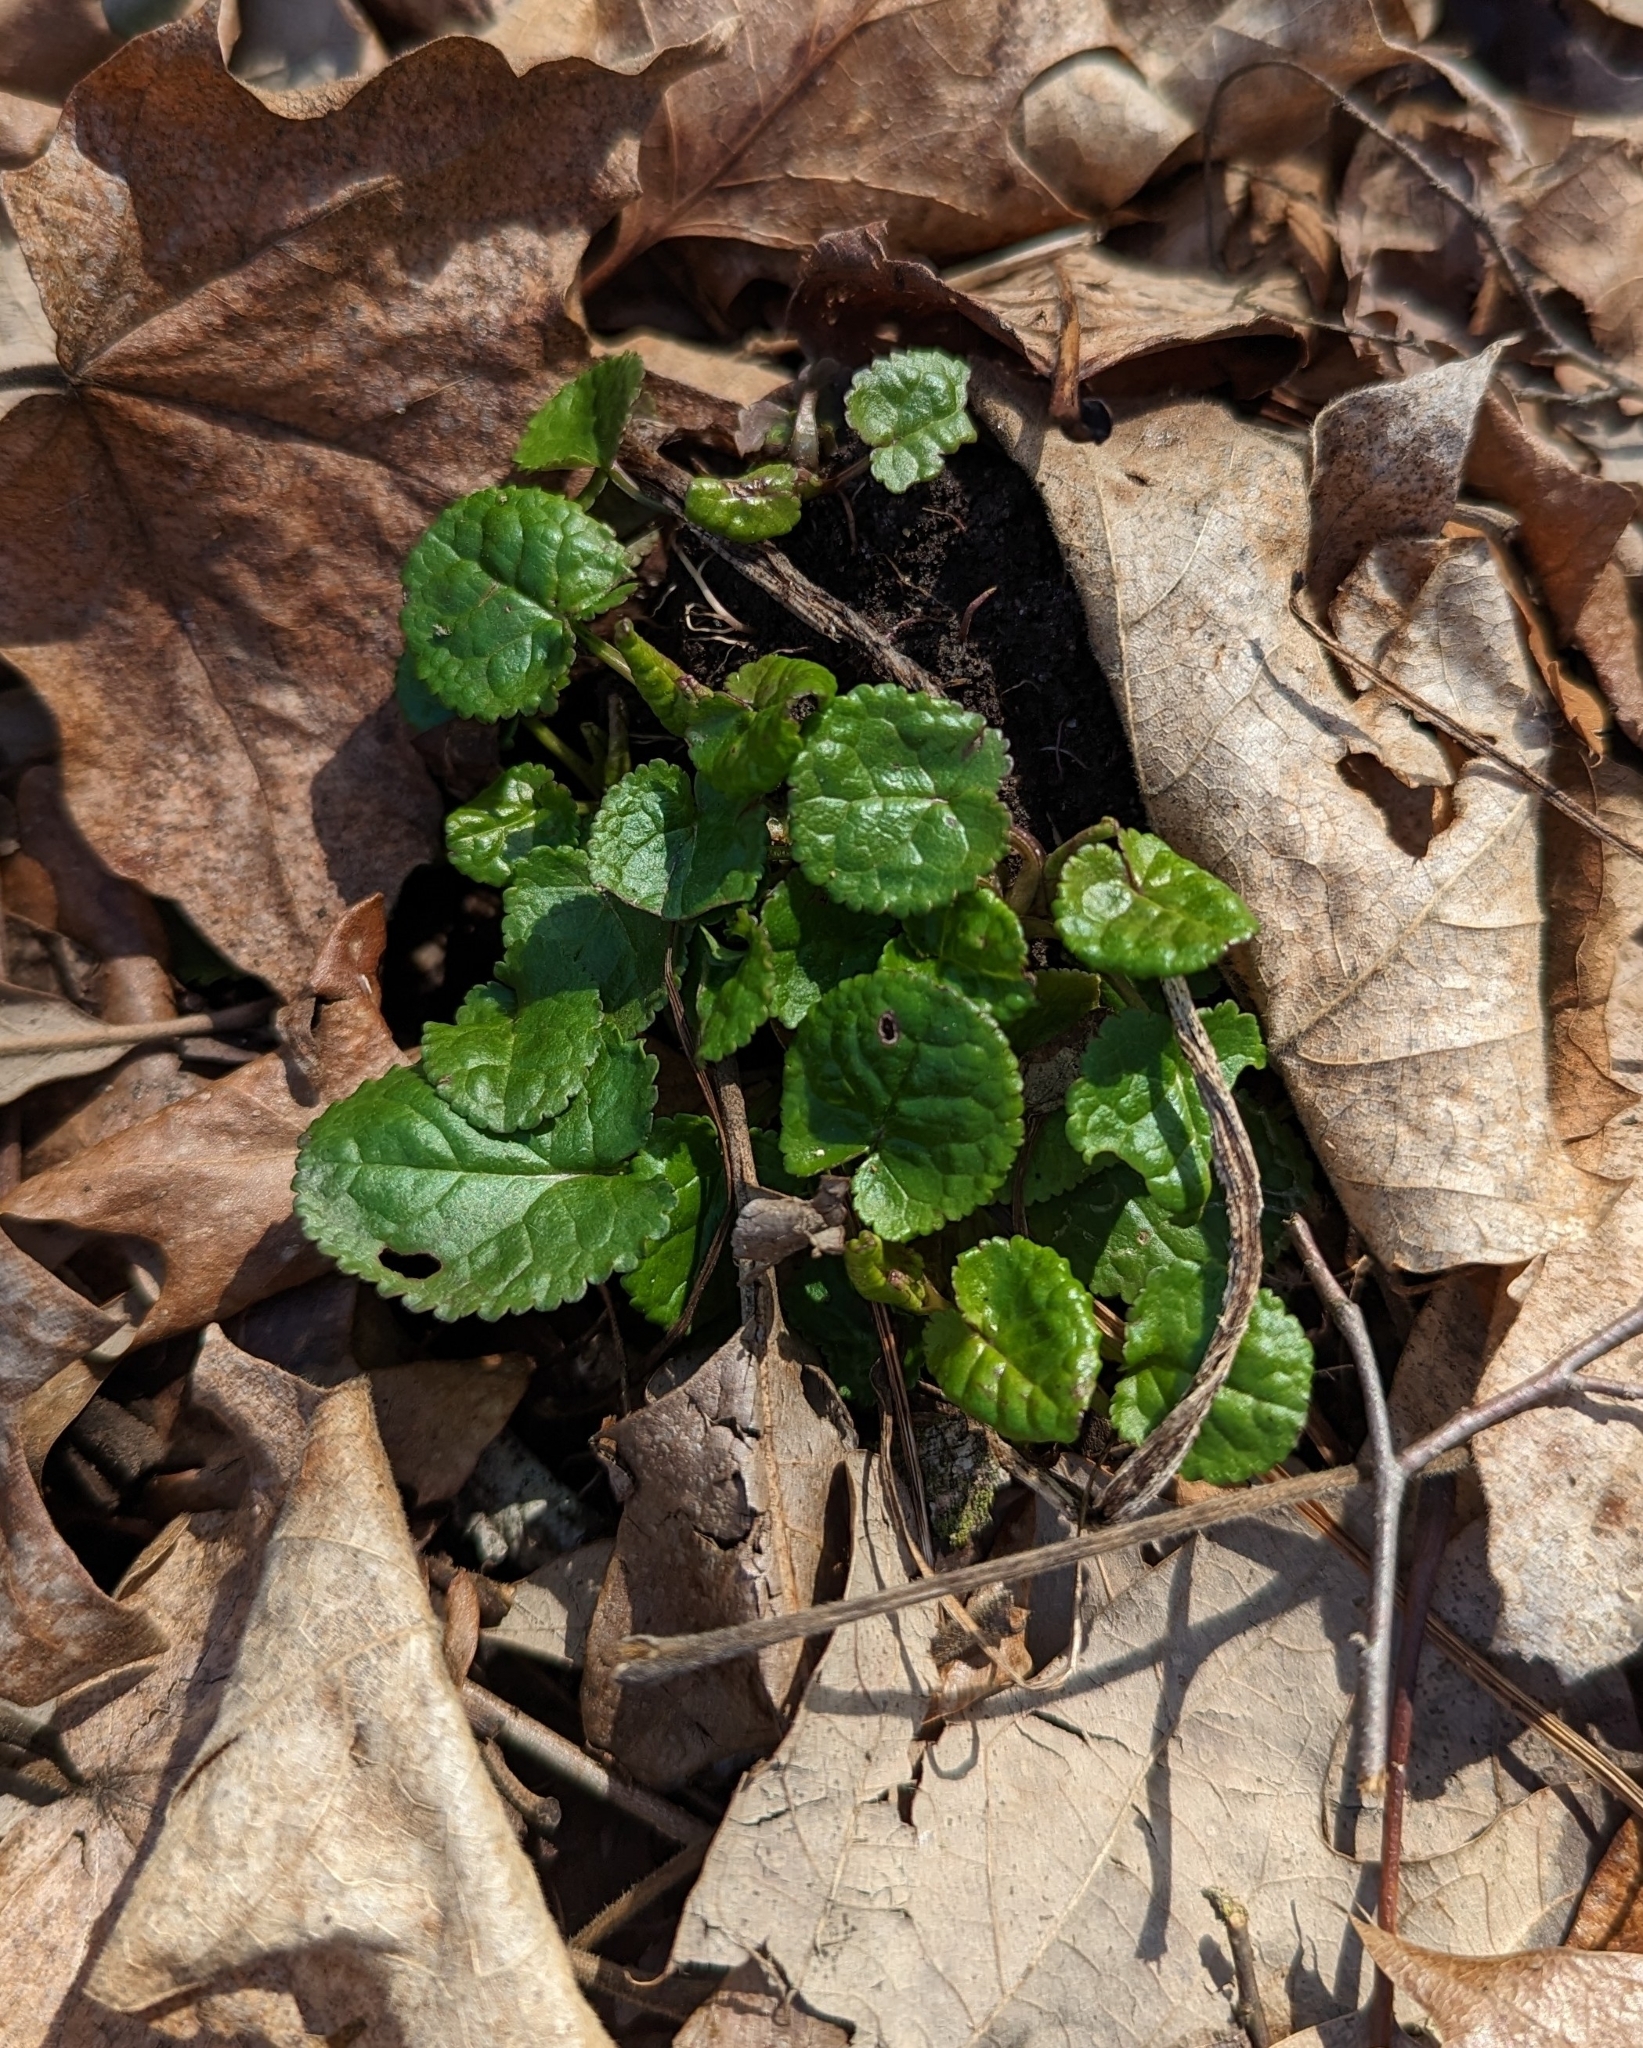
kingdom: Plantae
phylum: Tracheophyta
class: Magnoliopsida
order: Asterales
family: Asteraceae
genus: Packera
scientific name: Packera aurea
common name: Golden groundsel
